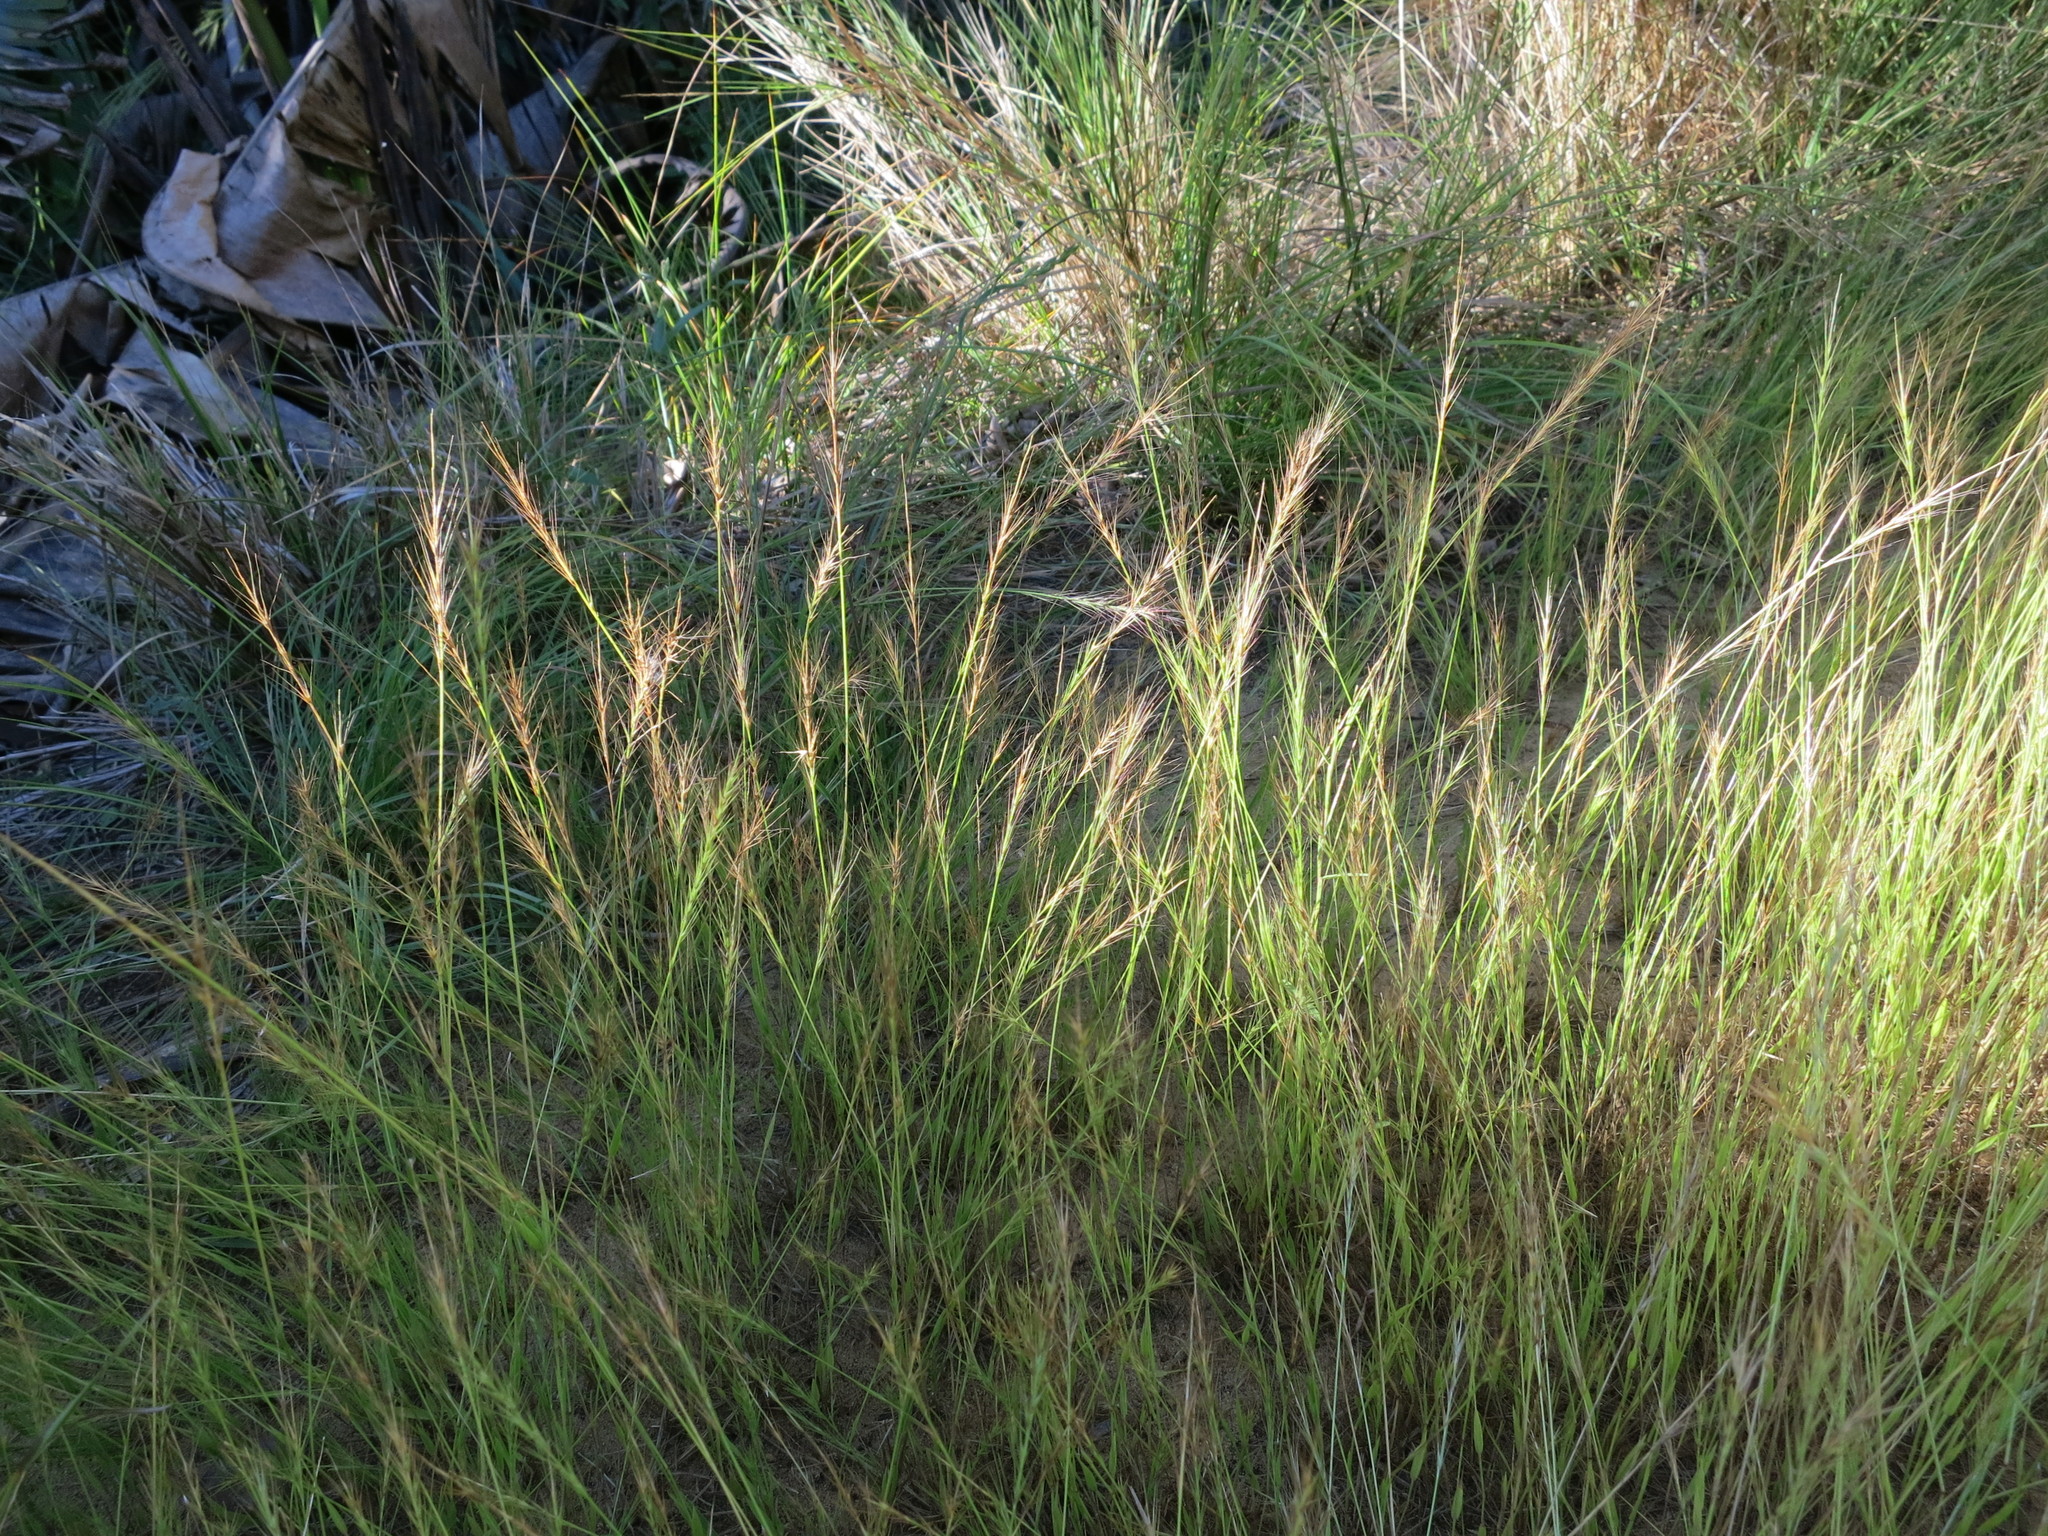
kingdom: Plantae
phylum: Tracheophyta
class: Liliopsida
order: Poales
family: Poaceae
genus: Viguierella
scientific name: Viguierella madagascariensis
